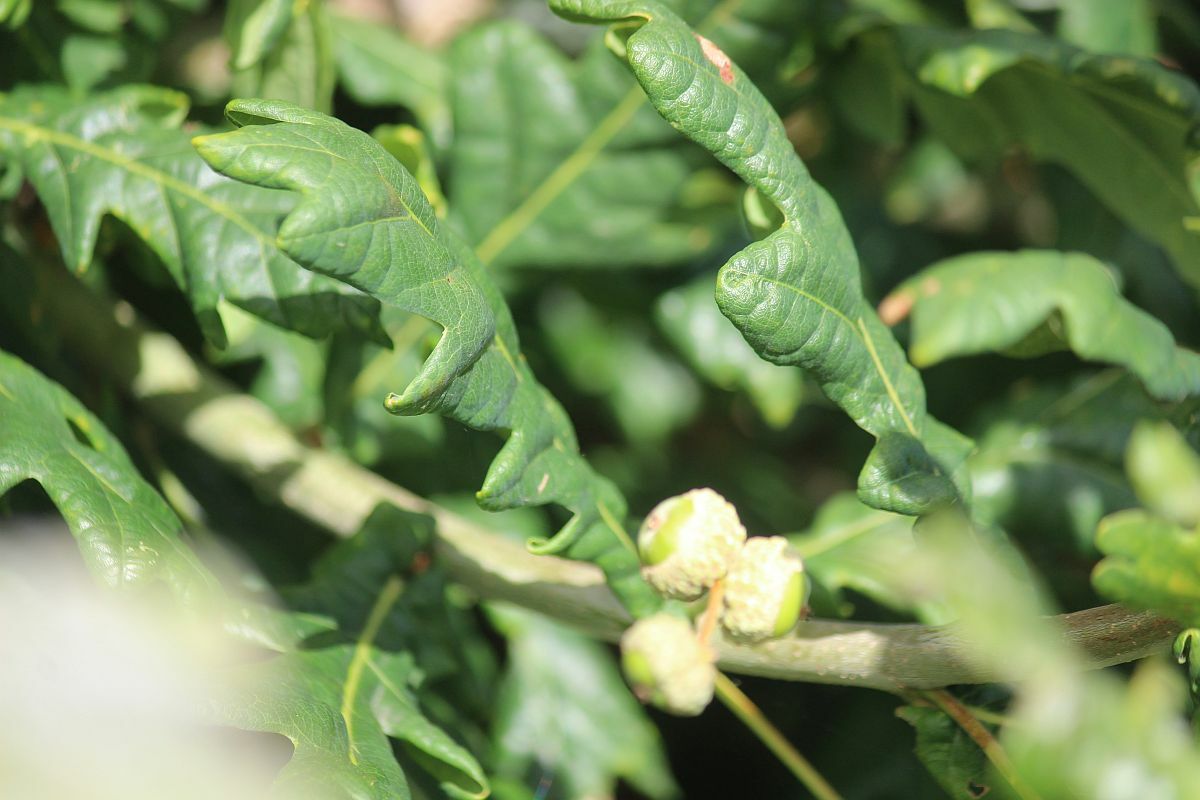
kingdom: Plantae
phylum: Tracheophyta
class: Magnoliopsida
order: Fagales
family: Fagaceae
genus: Quercus
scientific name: Quercus robur
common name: Pedunculate oak
